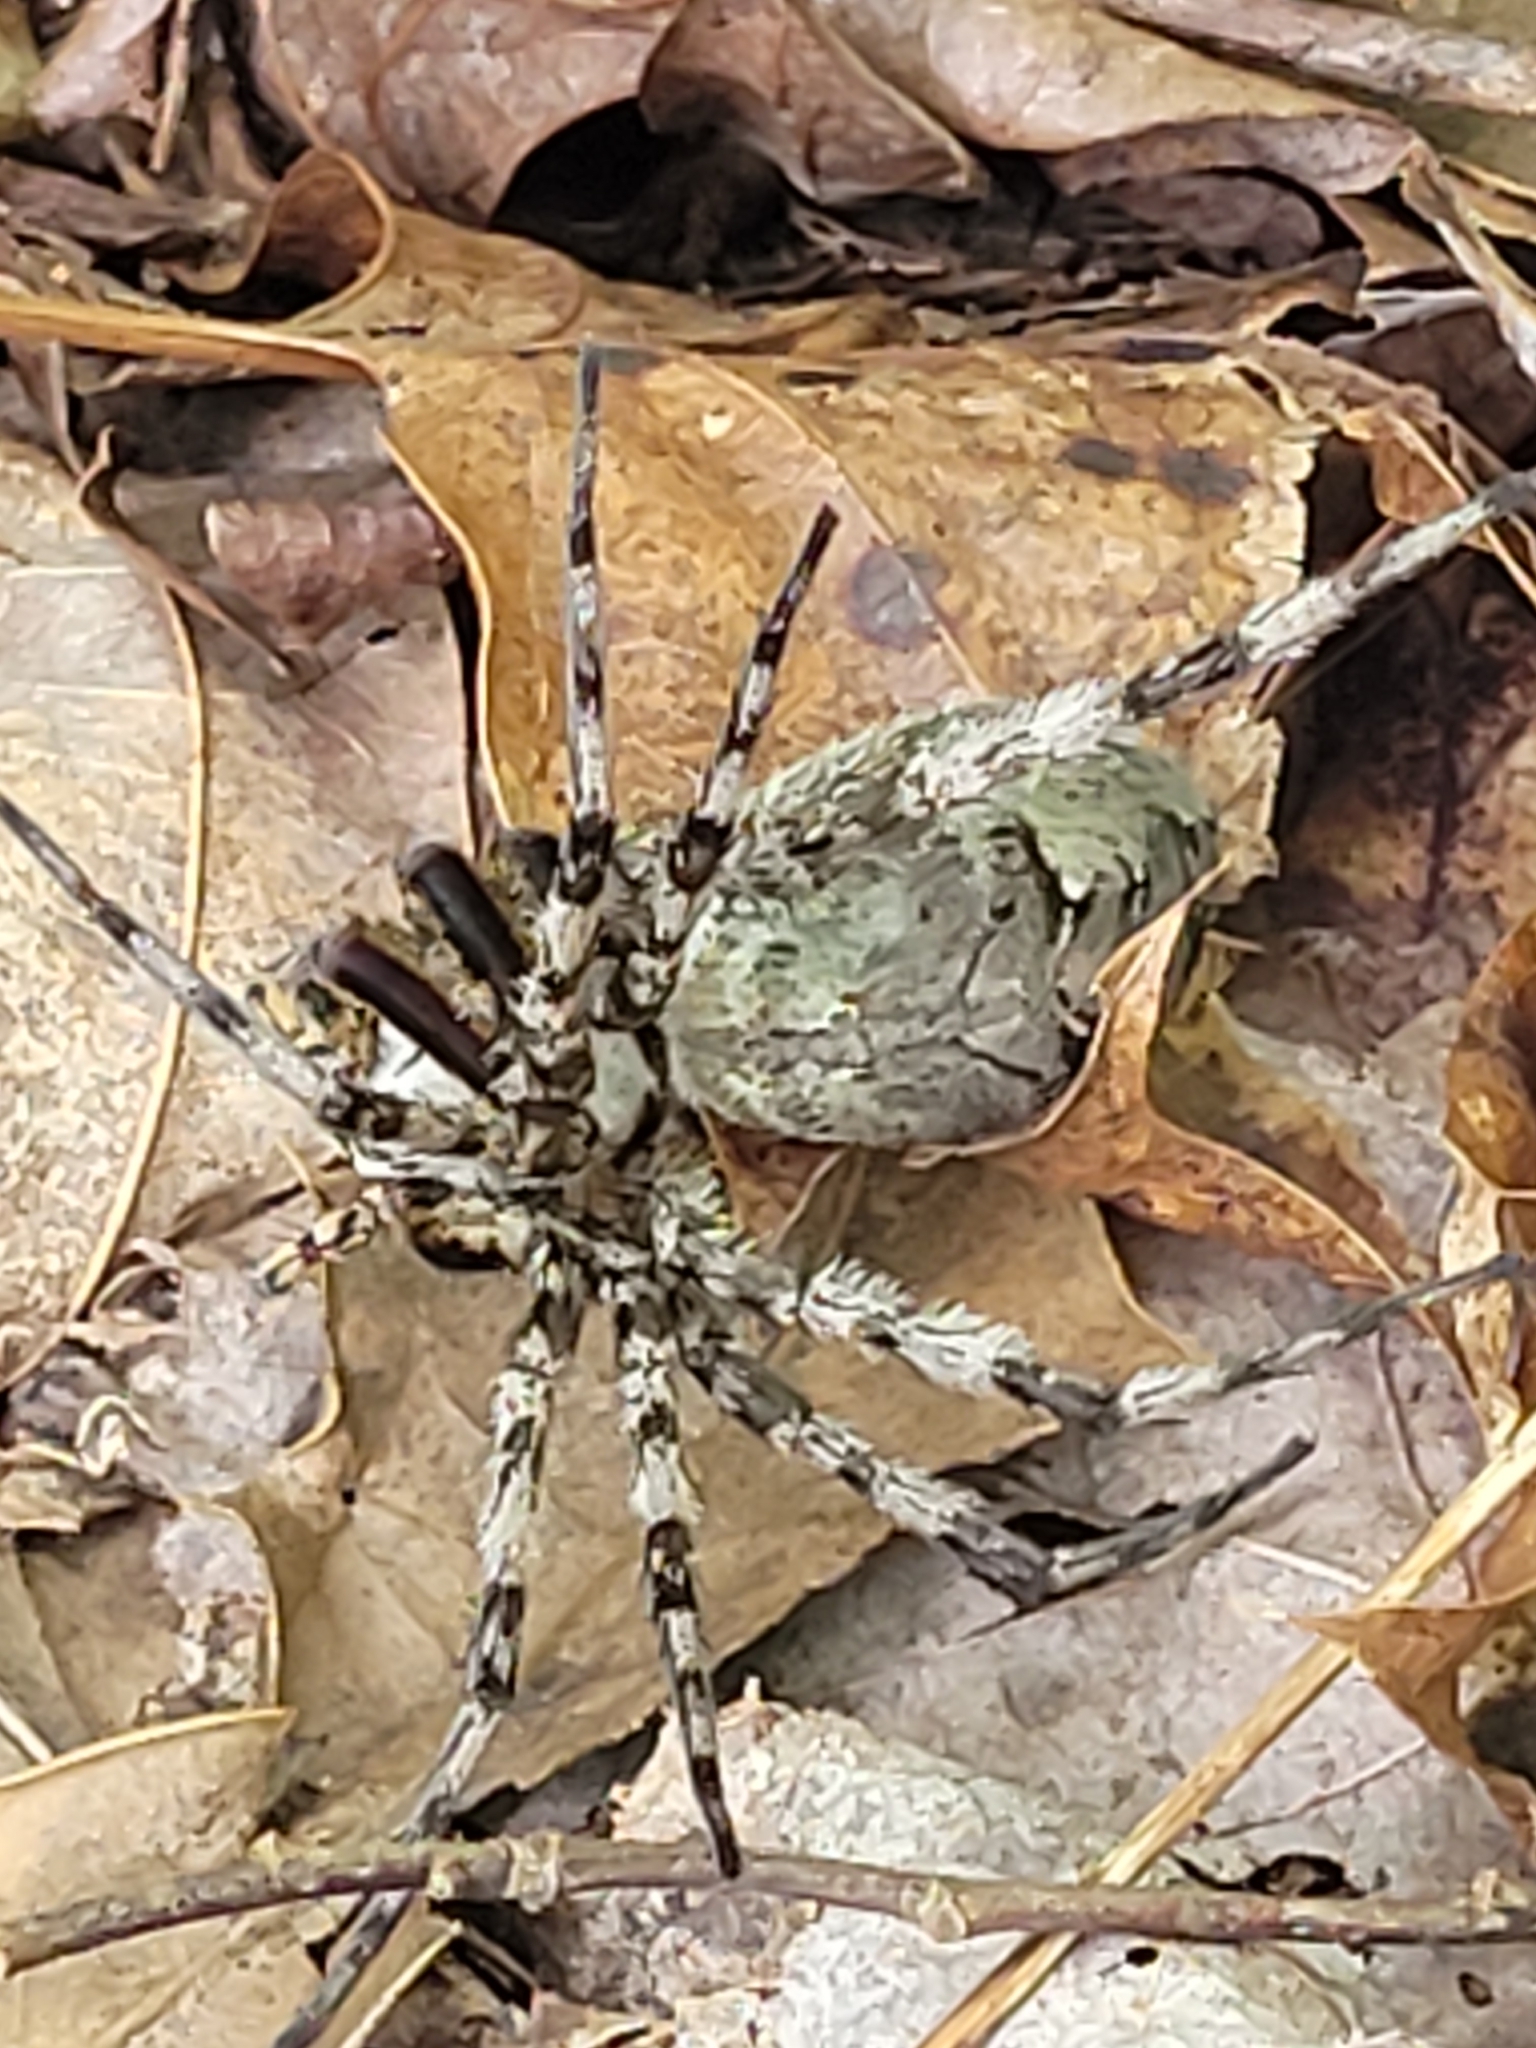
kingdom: Animalia
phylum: Arthropoda
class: Arachnida
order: Araneae
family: Pisauridae
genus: Dolomedes
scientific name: Dolomedes albineus
